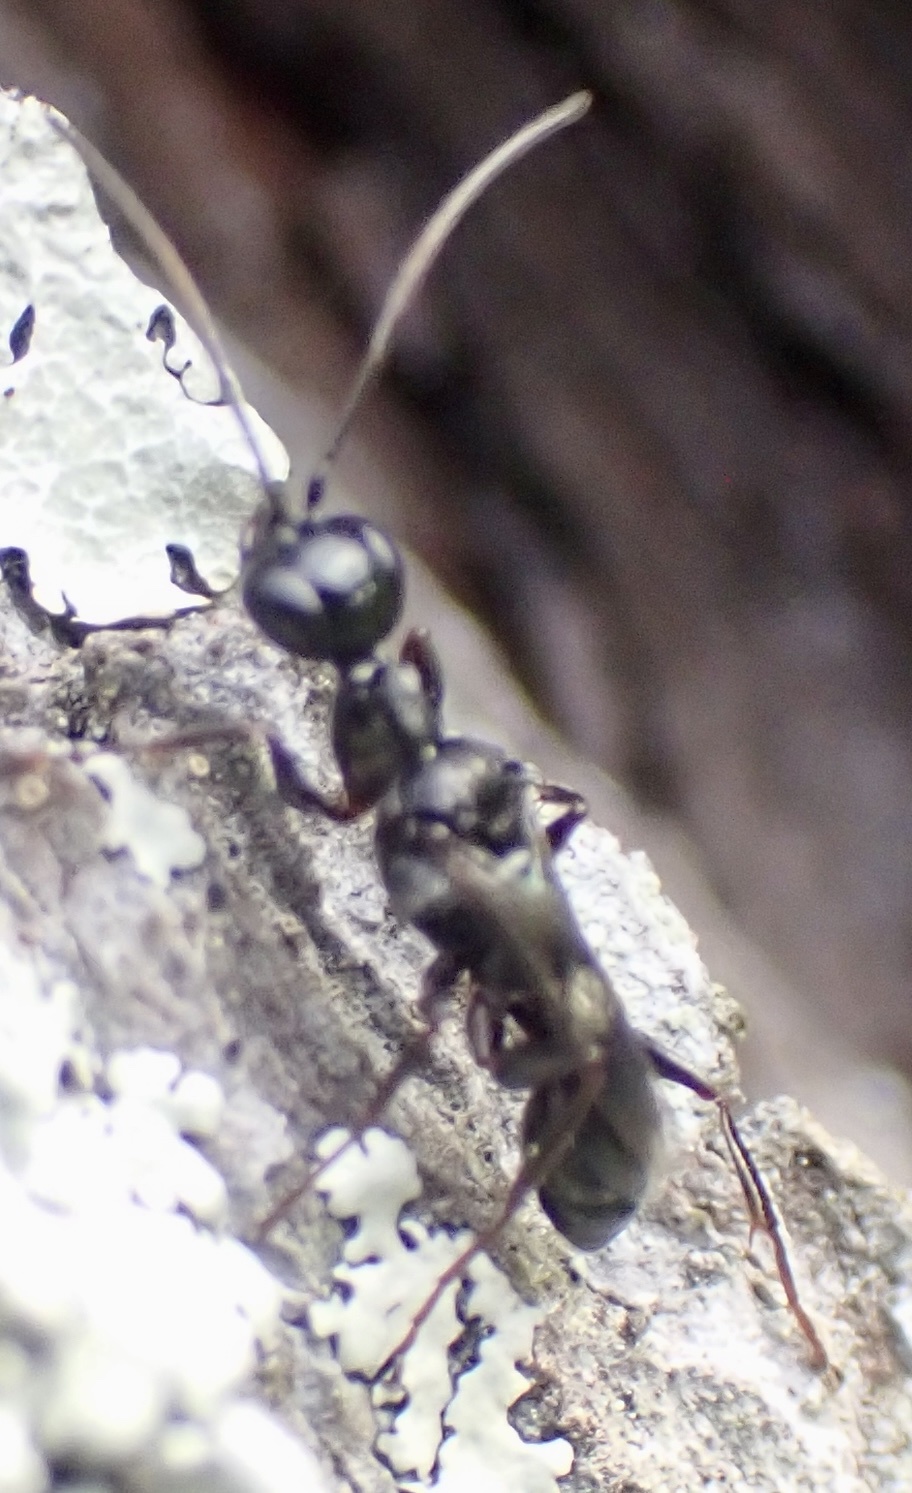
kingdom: Animalia
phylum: Arthropoda
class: Insecta
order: Hymenoptera
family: Ampulicidae
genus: Ampulex
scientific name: Ampulex canaliculata
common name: Cockroach wasp
